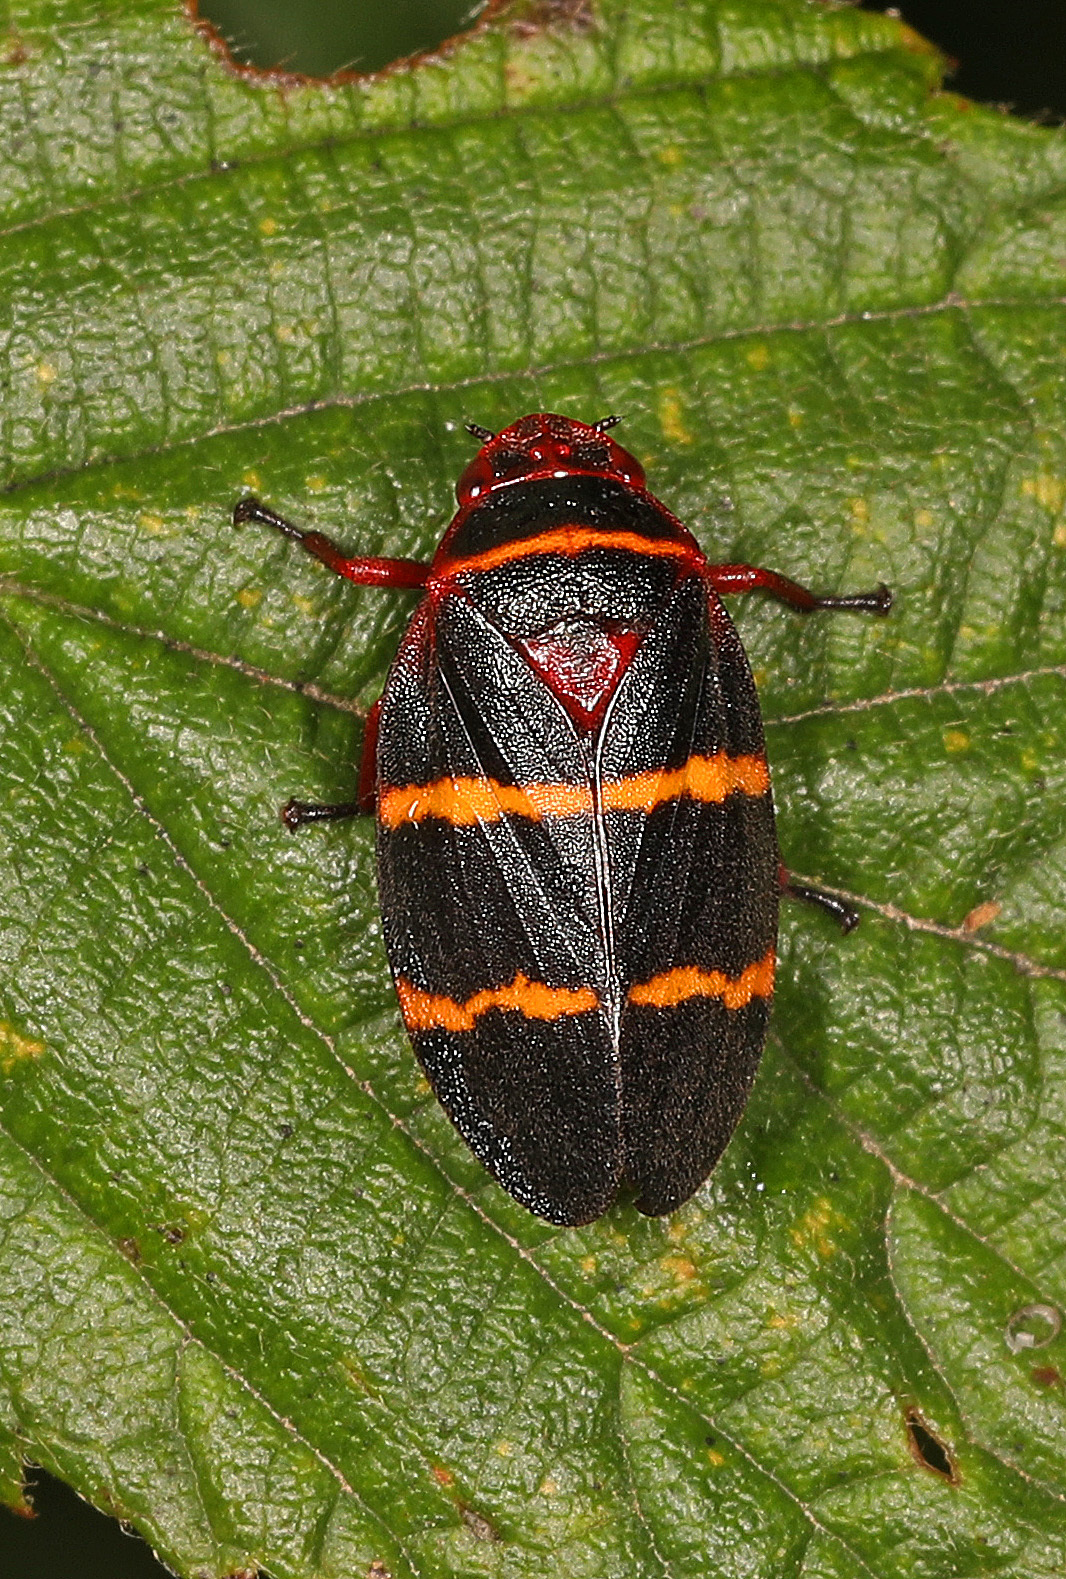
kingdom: Animalia
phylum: Arthropoda
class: Insecta
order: Hemiptera
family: Cercopidae
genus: Prosapia
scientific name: Prosapia bicincta
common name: Twolined spittlebug
